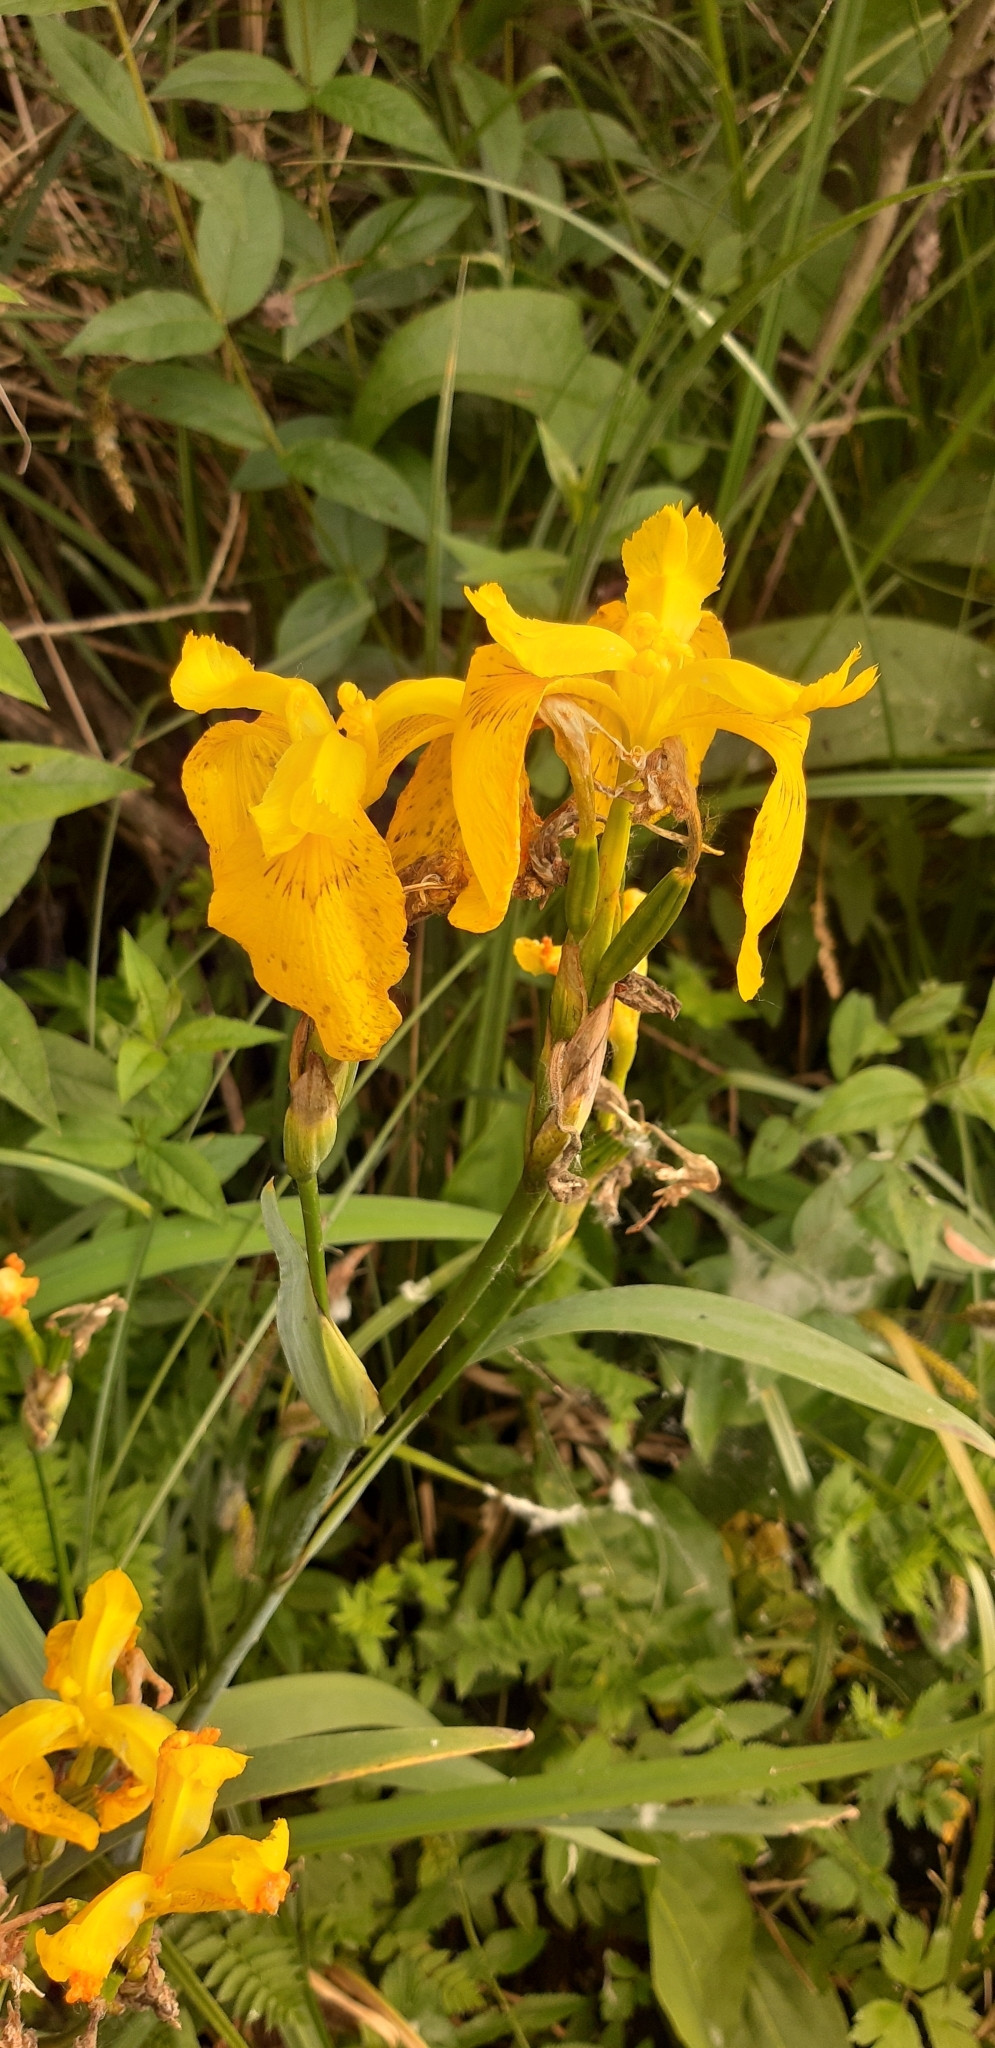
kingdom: Plantae
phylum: Tracheophyta
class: Liliopsida
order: Asparagales
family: Iridaceae
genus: Iris
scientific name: Iris pseudacorus
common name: Yellow flag
